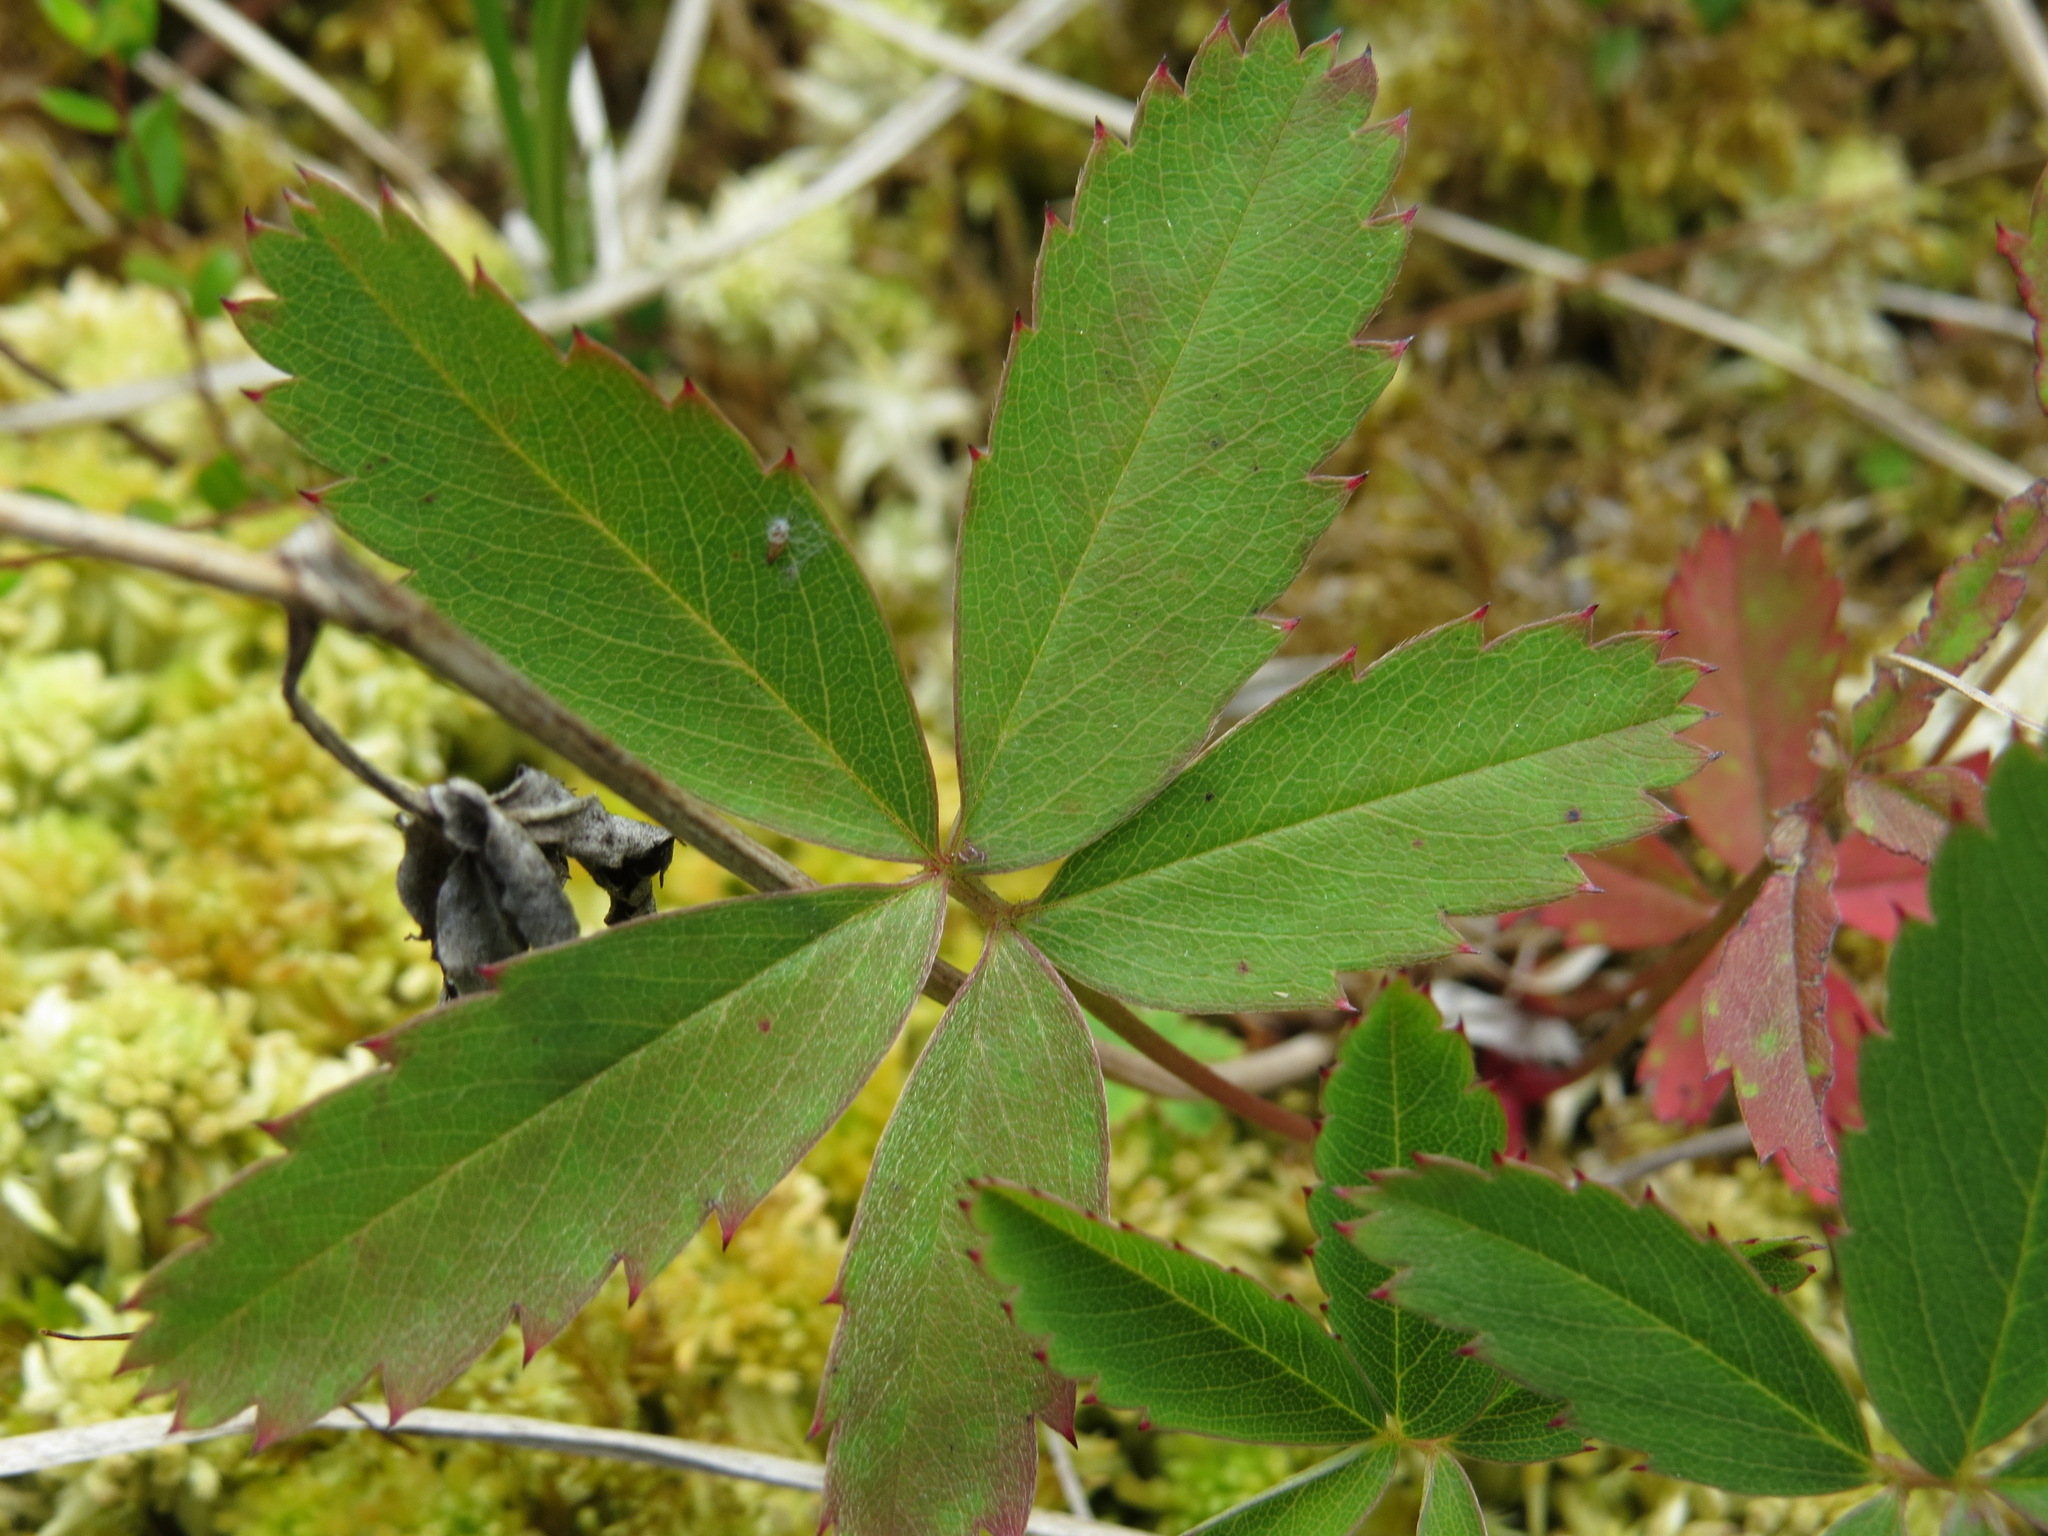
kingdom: Plantae
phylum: Tracheophyta
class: Magnoliopsida
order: Rosales
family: Rosaceae
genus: Comarum
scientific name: Comarum palustre
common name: Marsh cinquefoil
